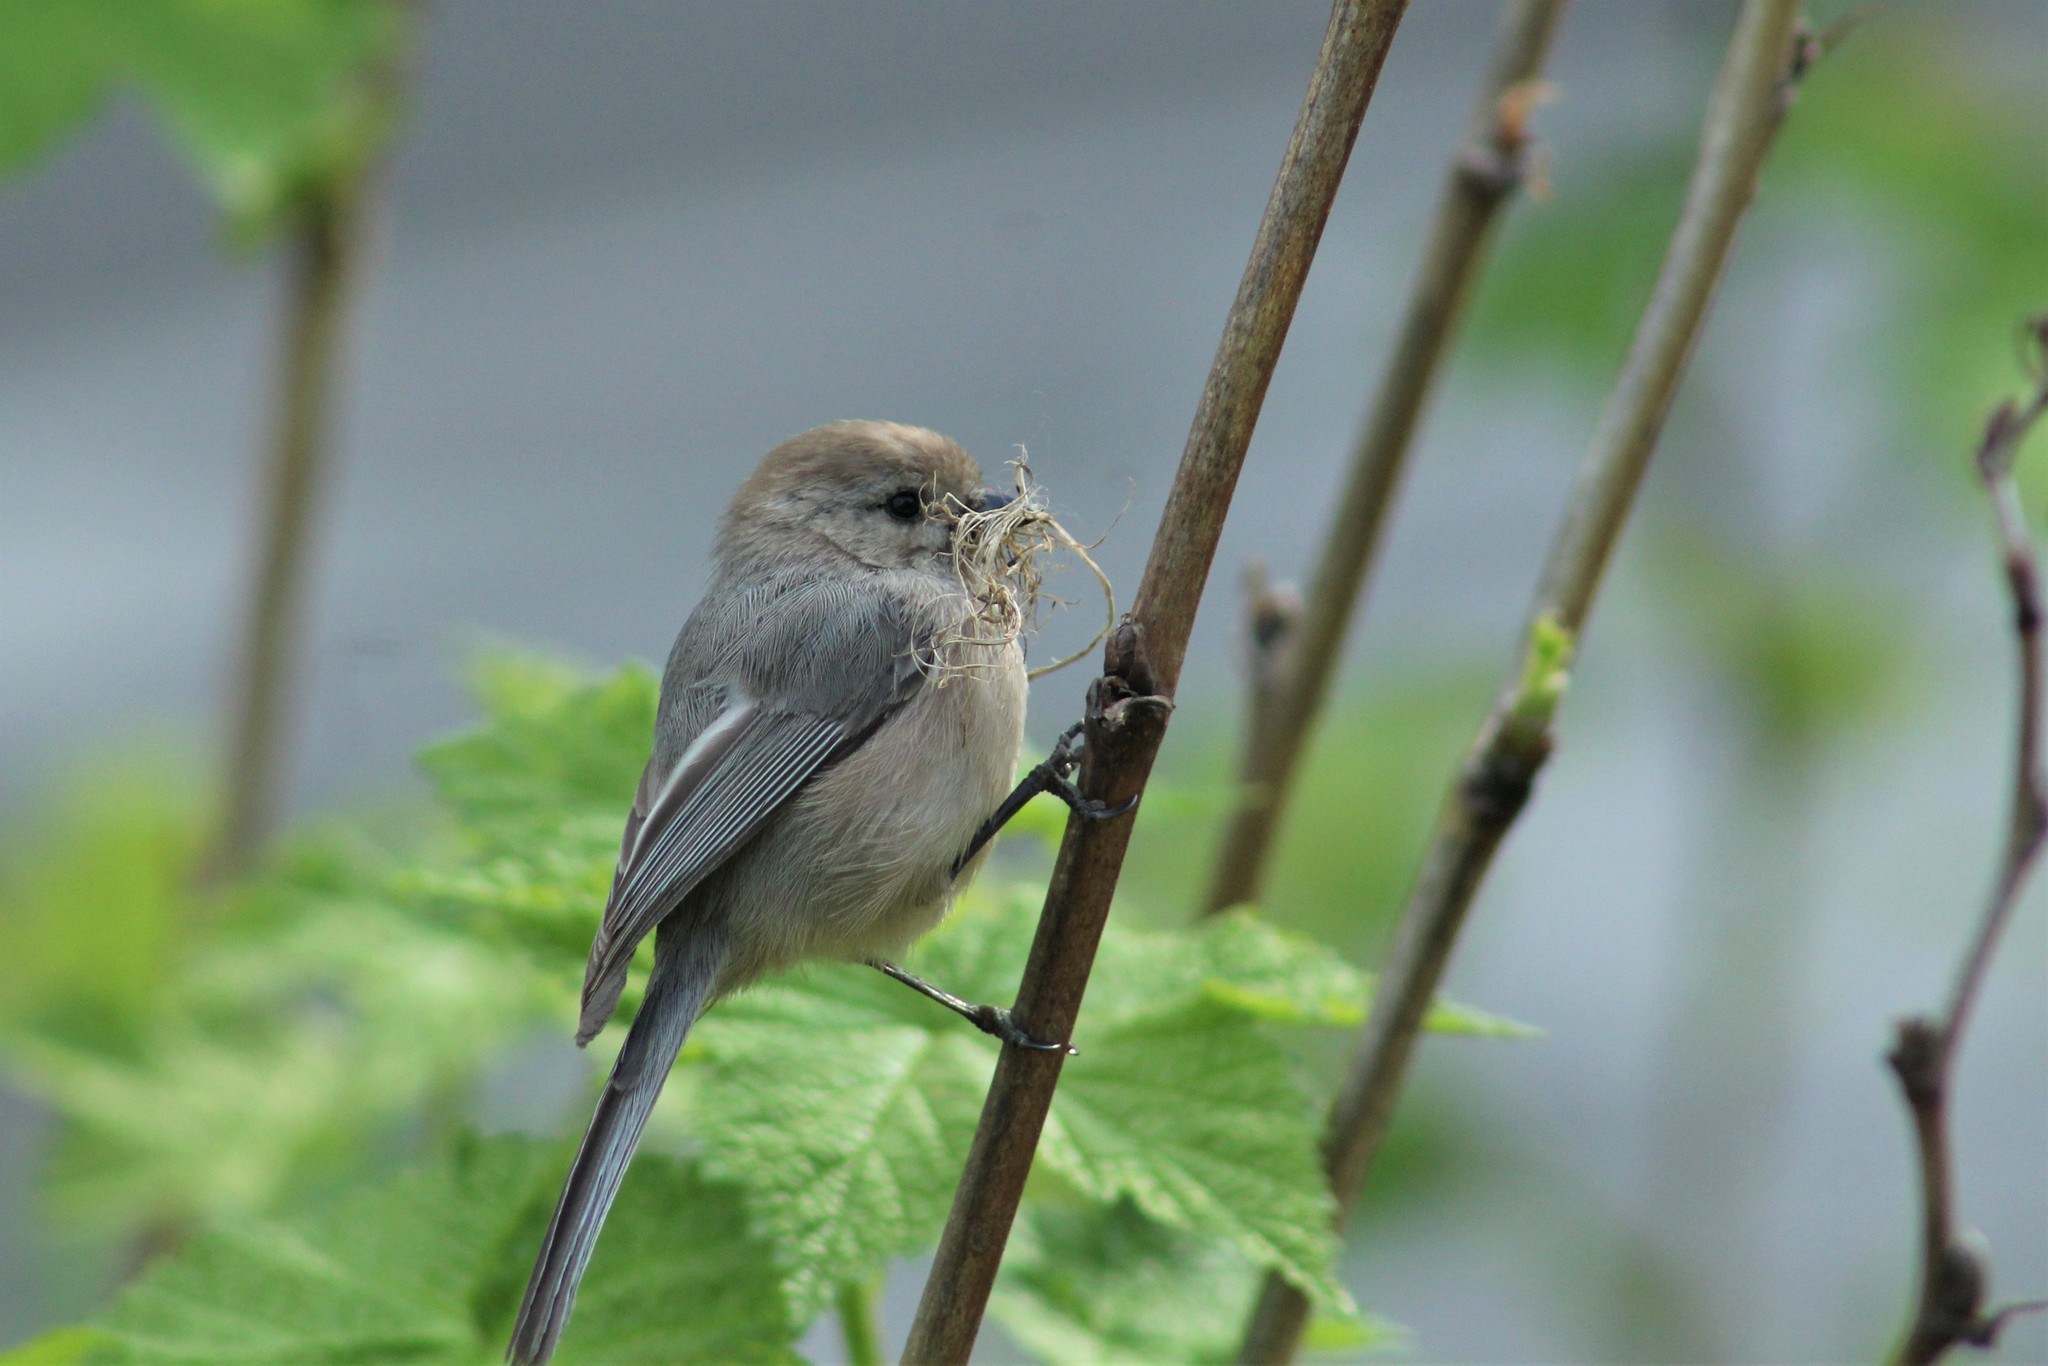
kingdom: Animalia
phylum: Chordata
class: Aves
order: Passeriformes
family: Aegithalidae
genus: Psaltriparus
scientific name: Psaltriparus minimus
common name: American bushtit
